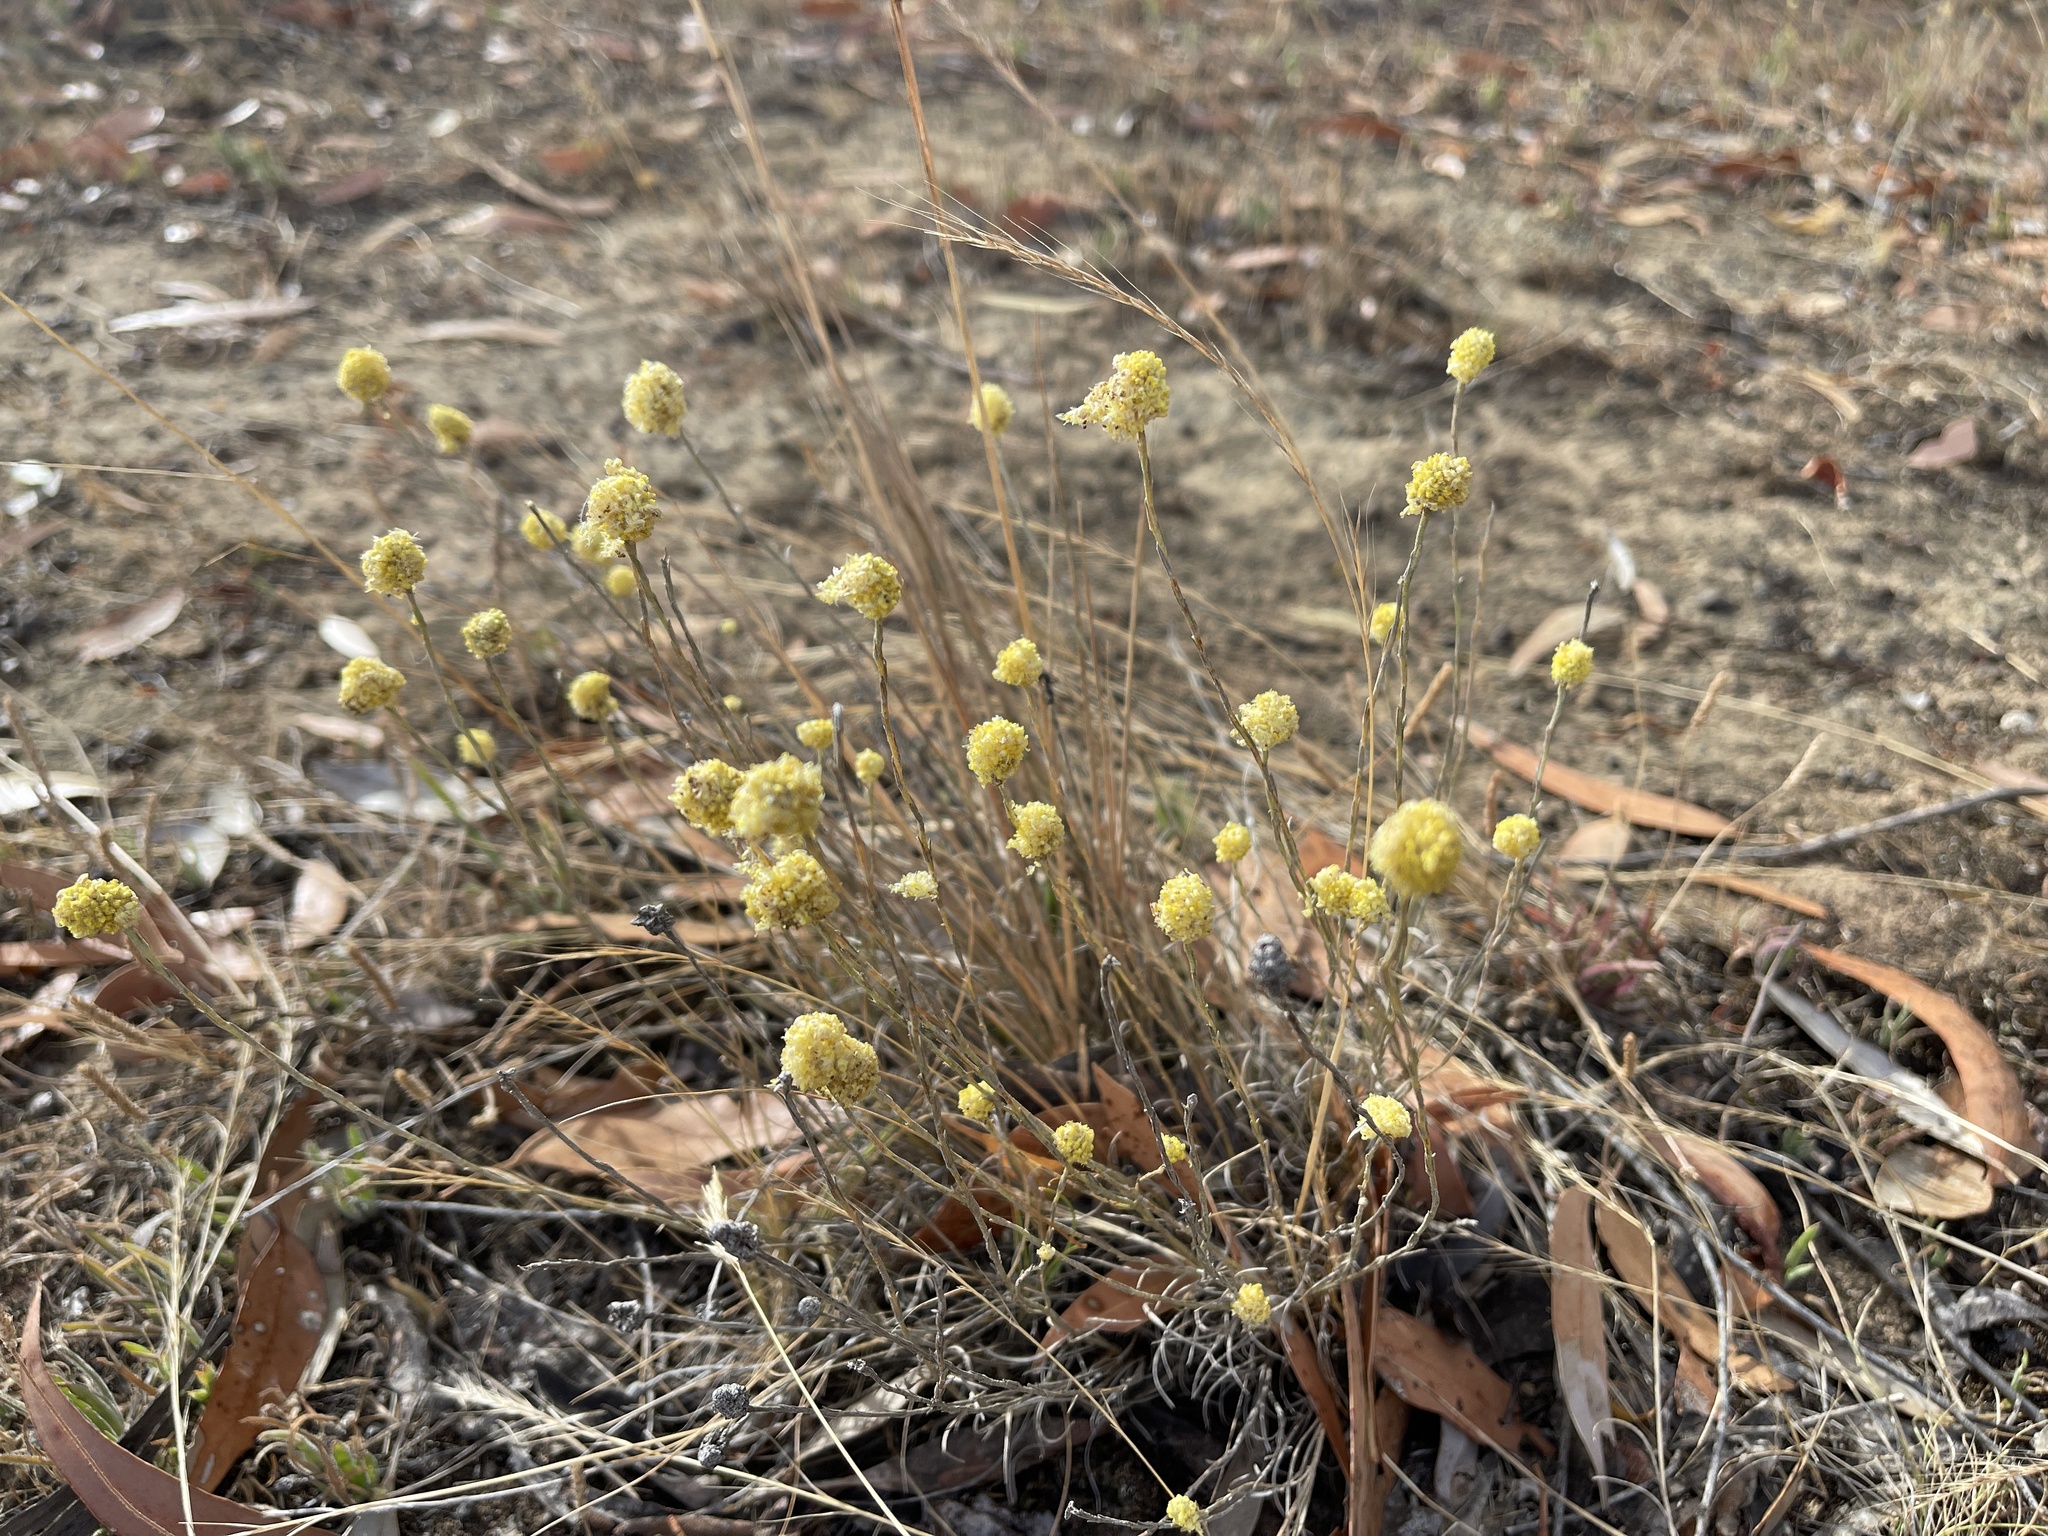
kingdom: Plantae
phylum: Tracheophyta
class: Magnoliopsida
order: Asterales
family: Asteraceae
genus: Calocephalus
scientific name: Calocephalus citreus
